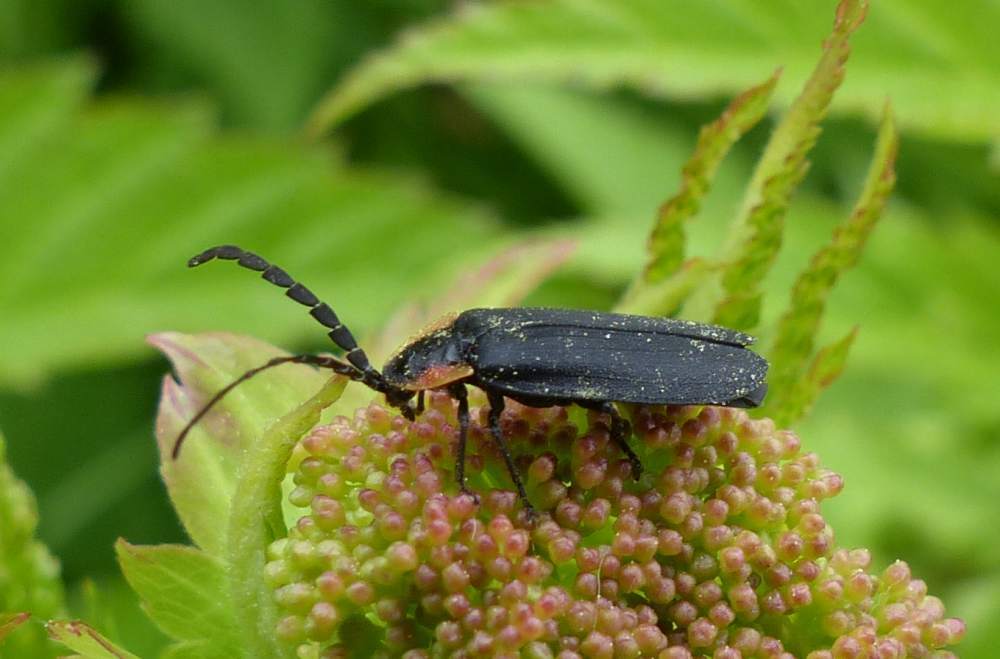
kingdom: Animalia
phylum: Arthropoda
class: Insecta
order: Coleoptera
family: Lampyridae
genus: Lucidota
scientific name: Lucidota atra
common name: Black firefly
